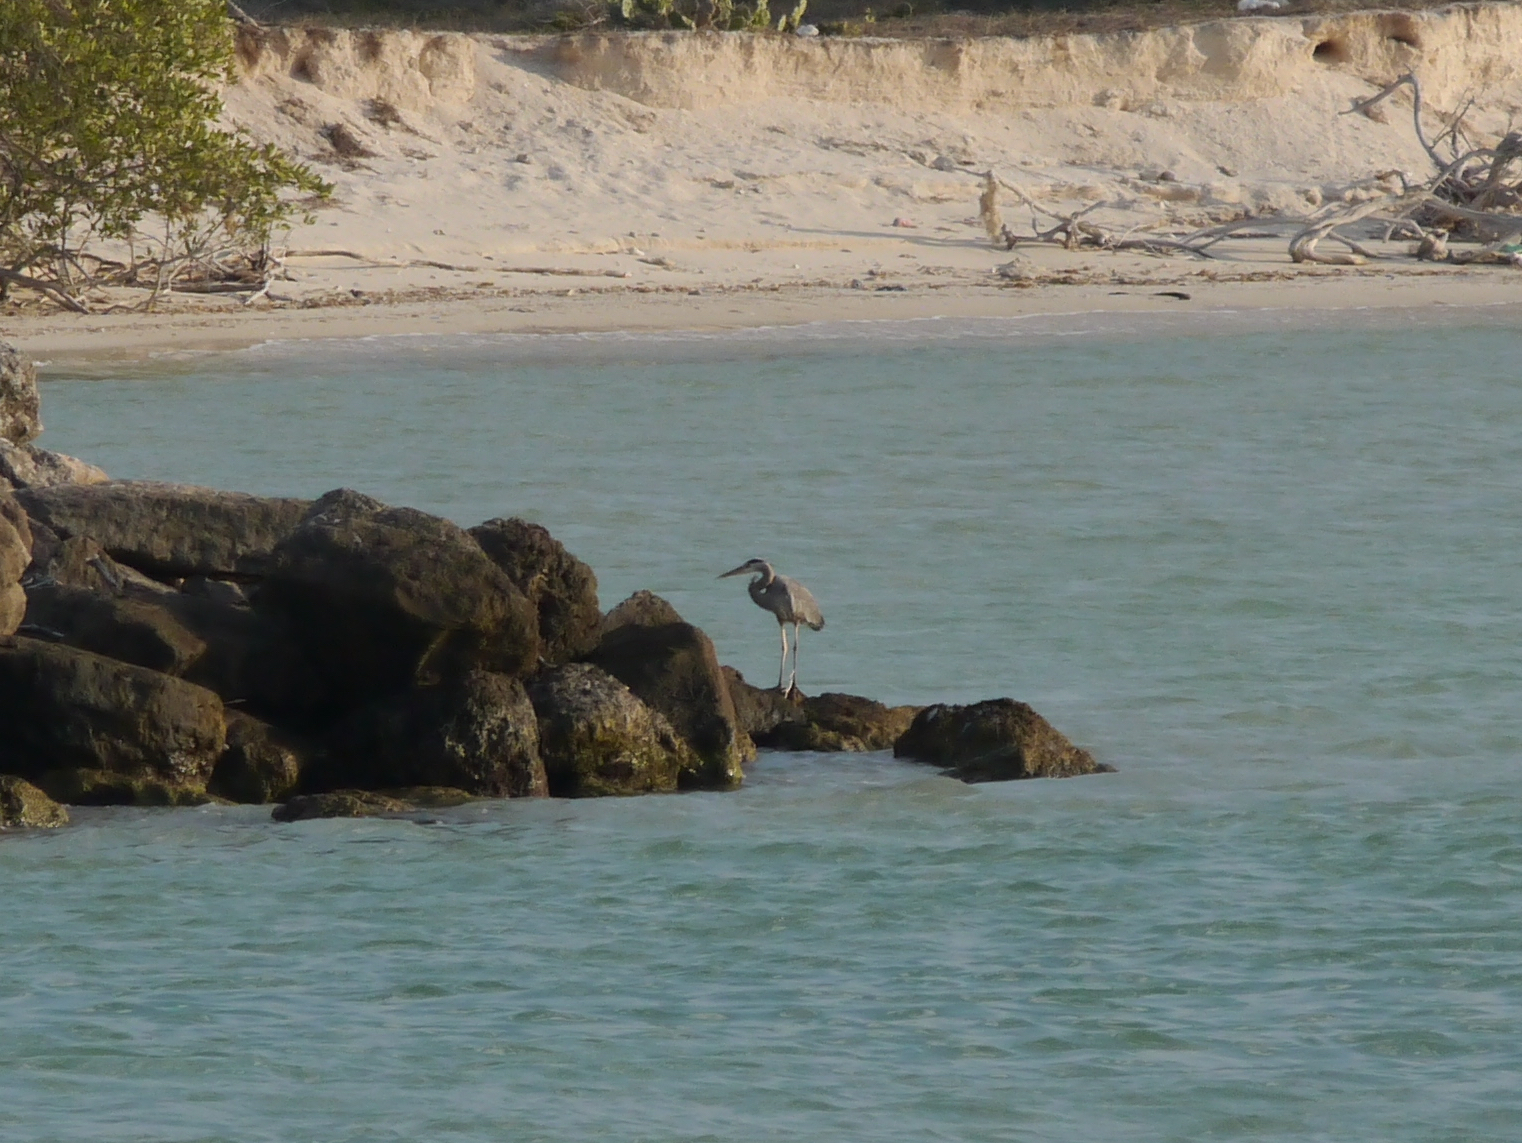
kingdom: Animalia
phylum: Chordata
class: Aves
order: Pelecaniformes
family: Ardeidae
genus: Ardea
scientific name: Ardea herodias
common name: Great blue heron
